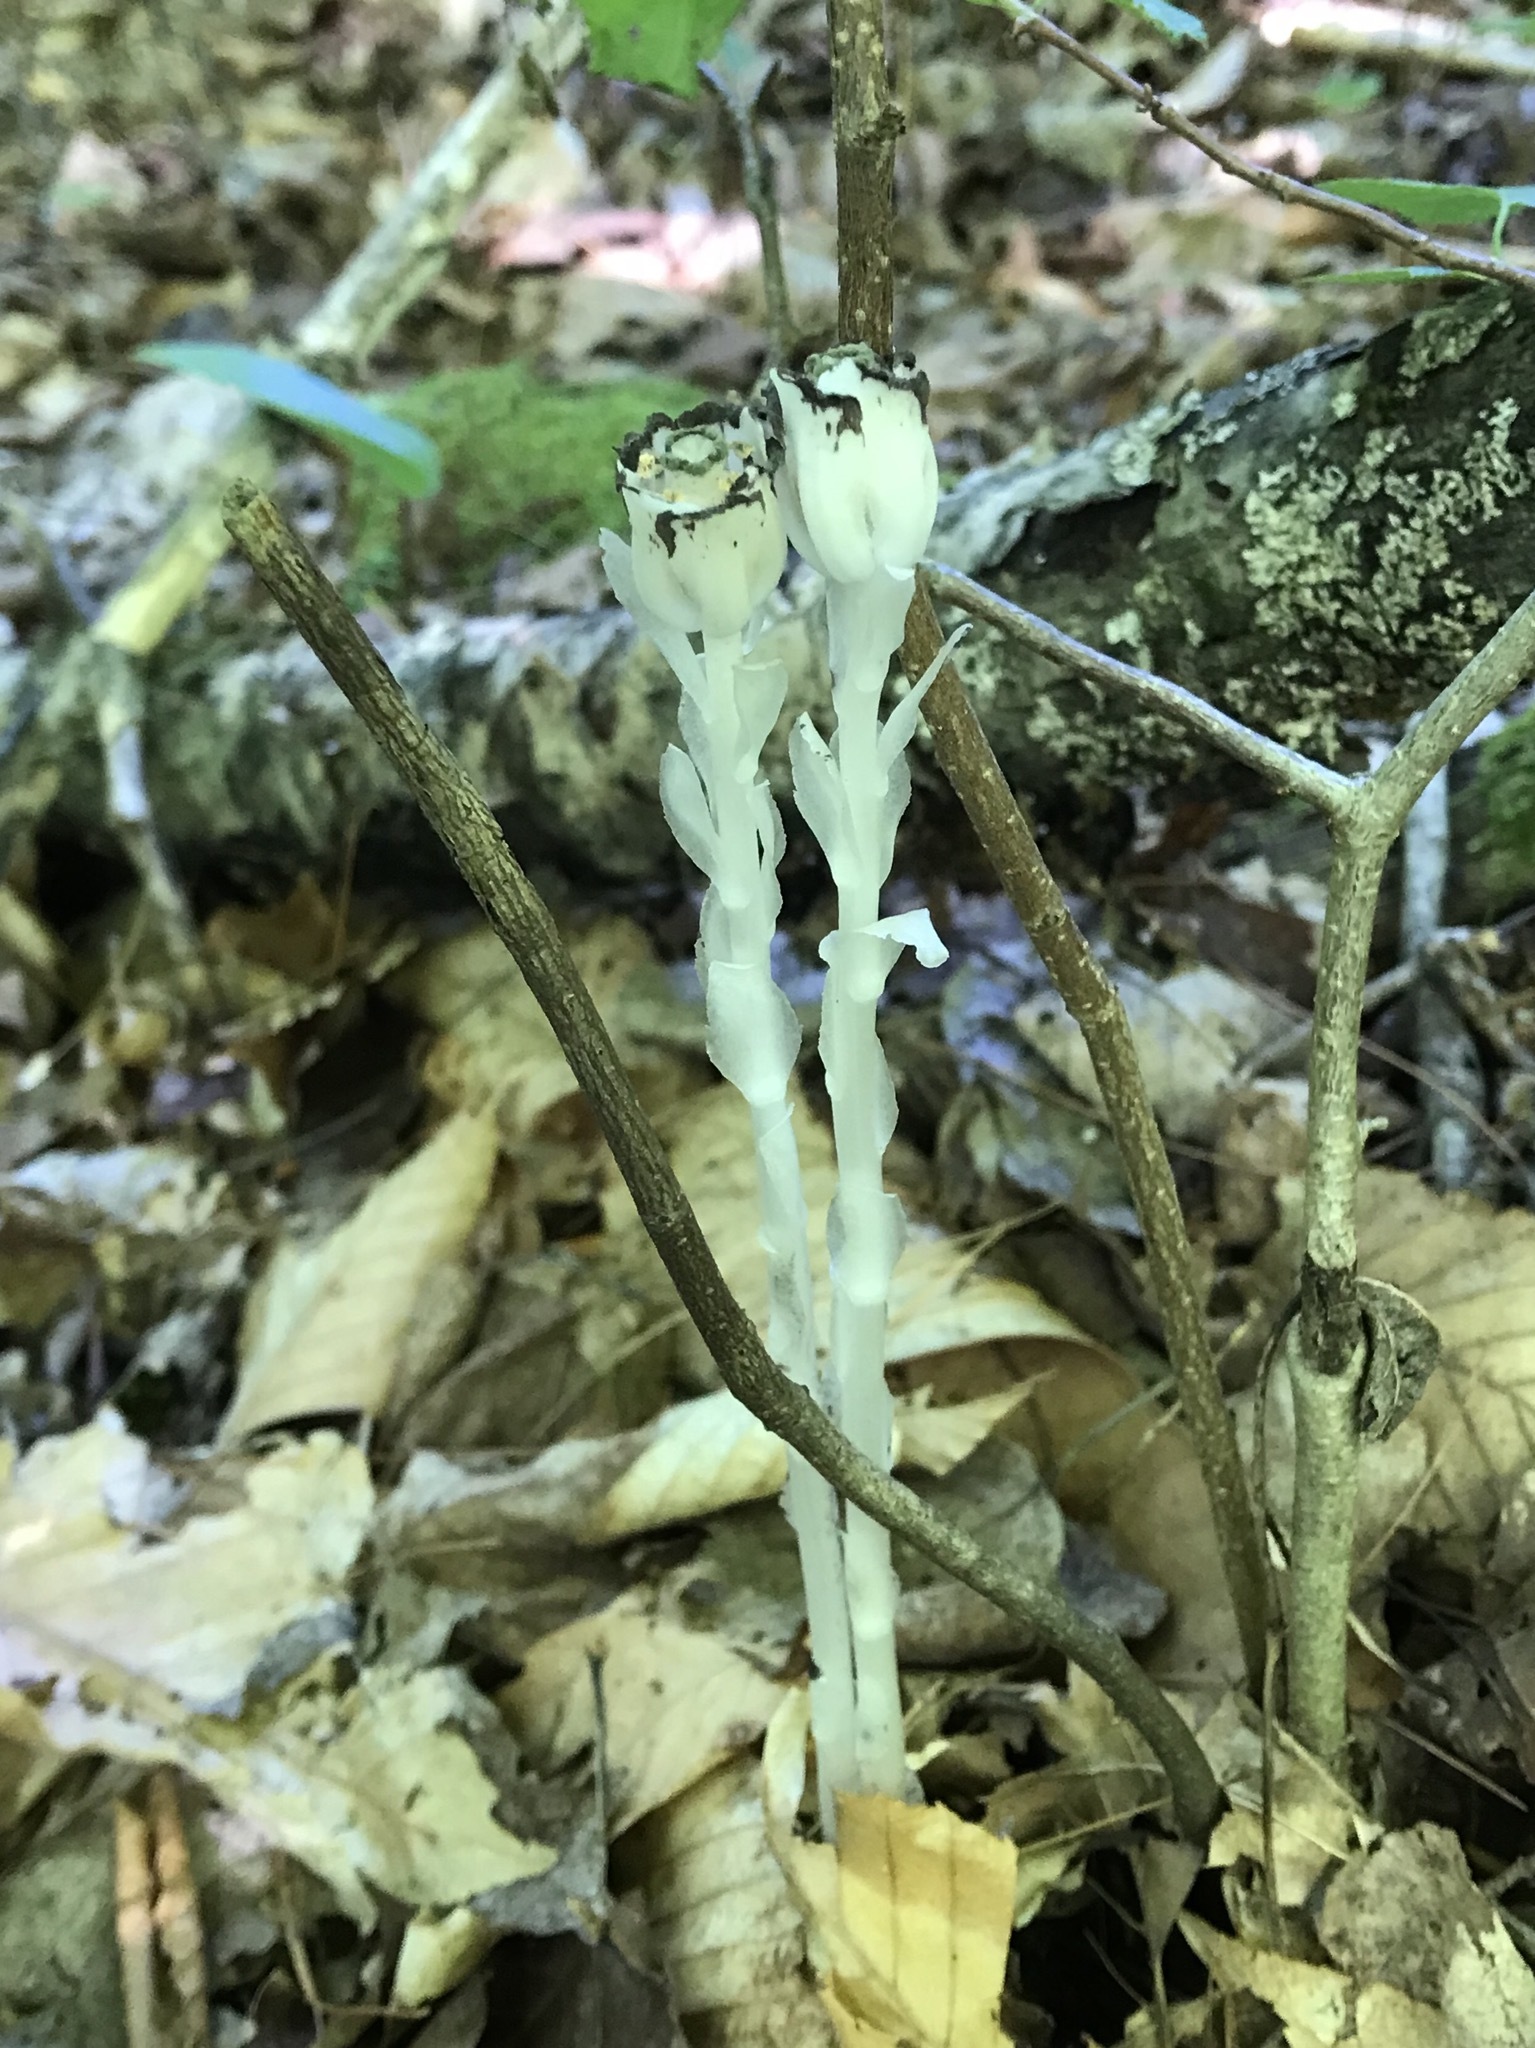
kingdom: Plantae
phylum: Tracheophyta
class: Magnoliopsida
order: Ericales
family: Ericaceae
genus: Monotropa
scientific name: Monotropa uniflora
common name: Convulsion root
